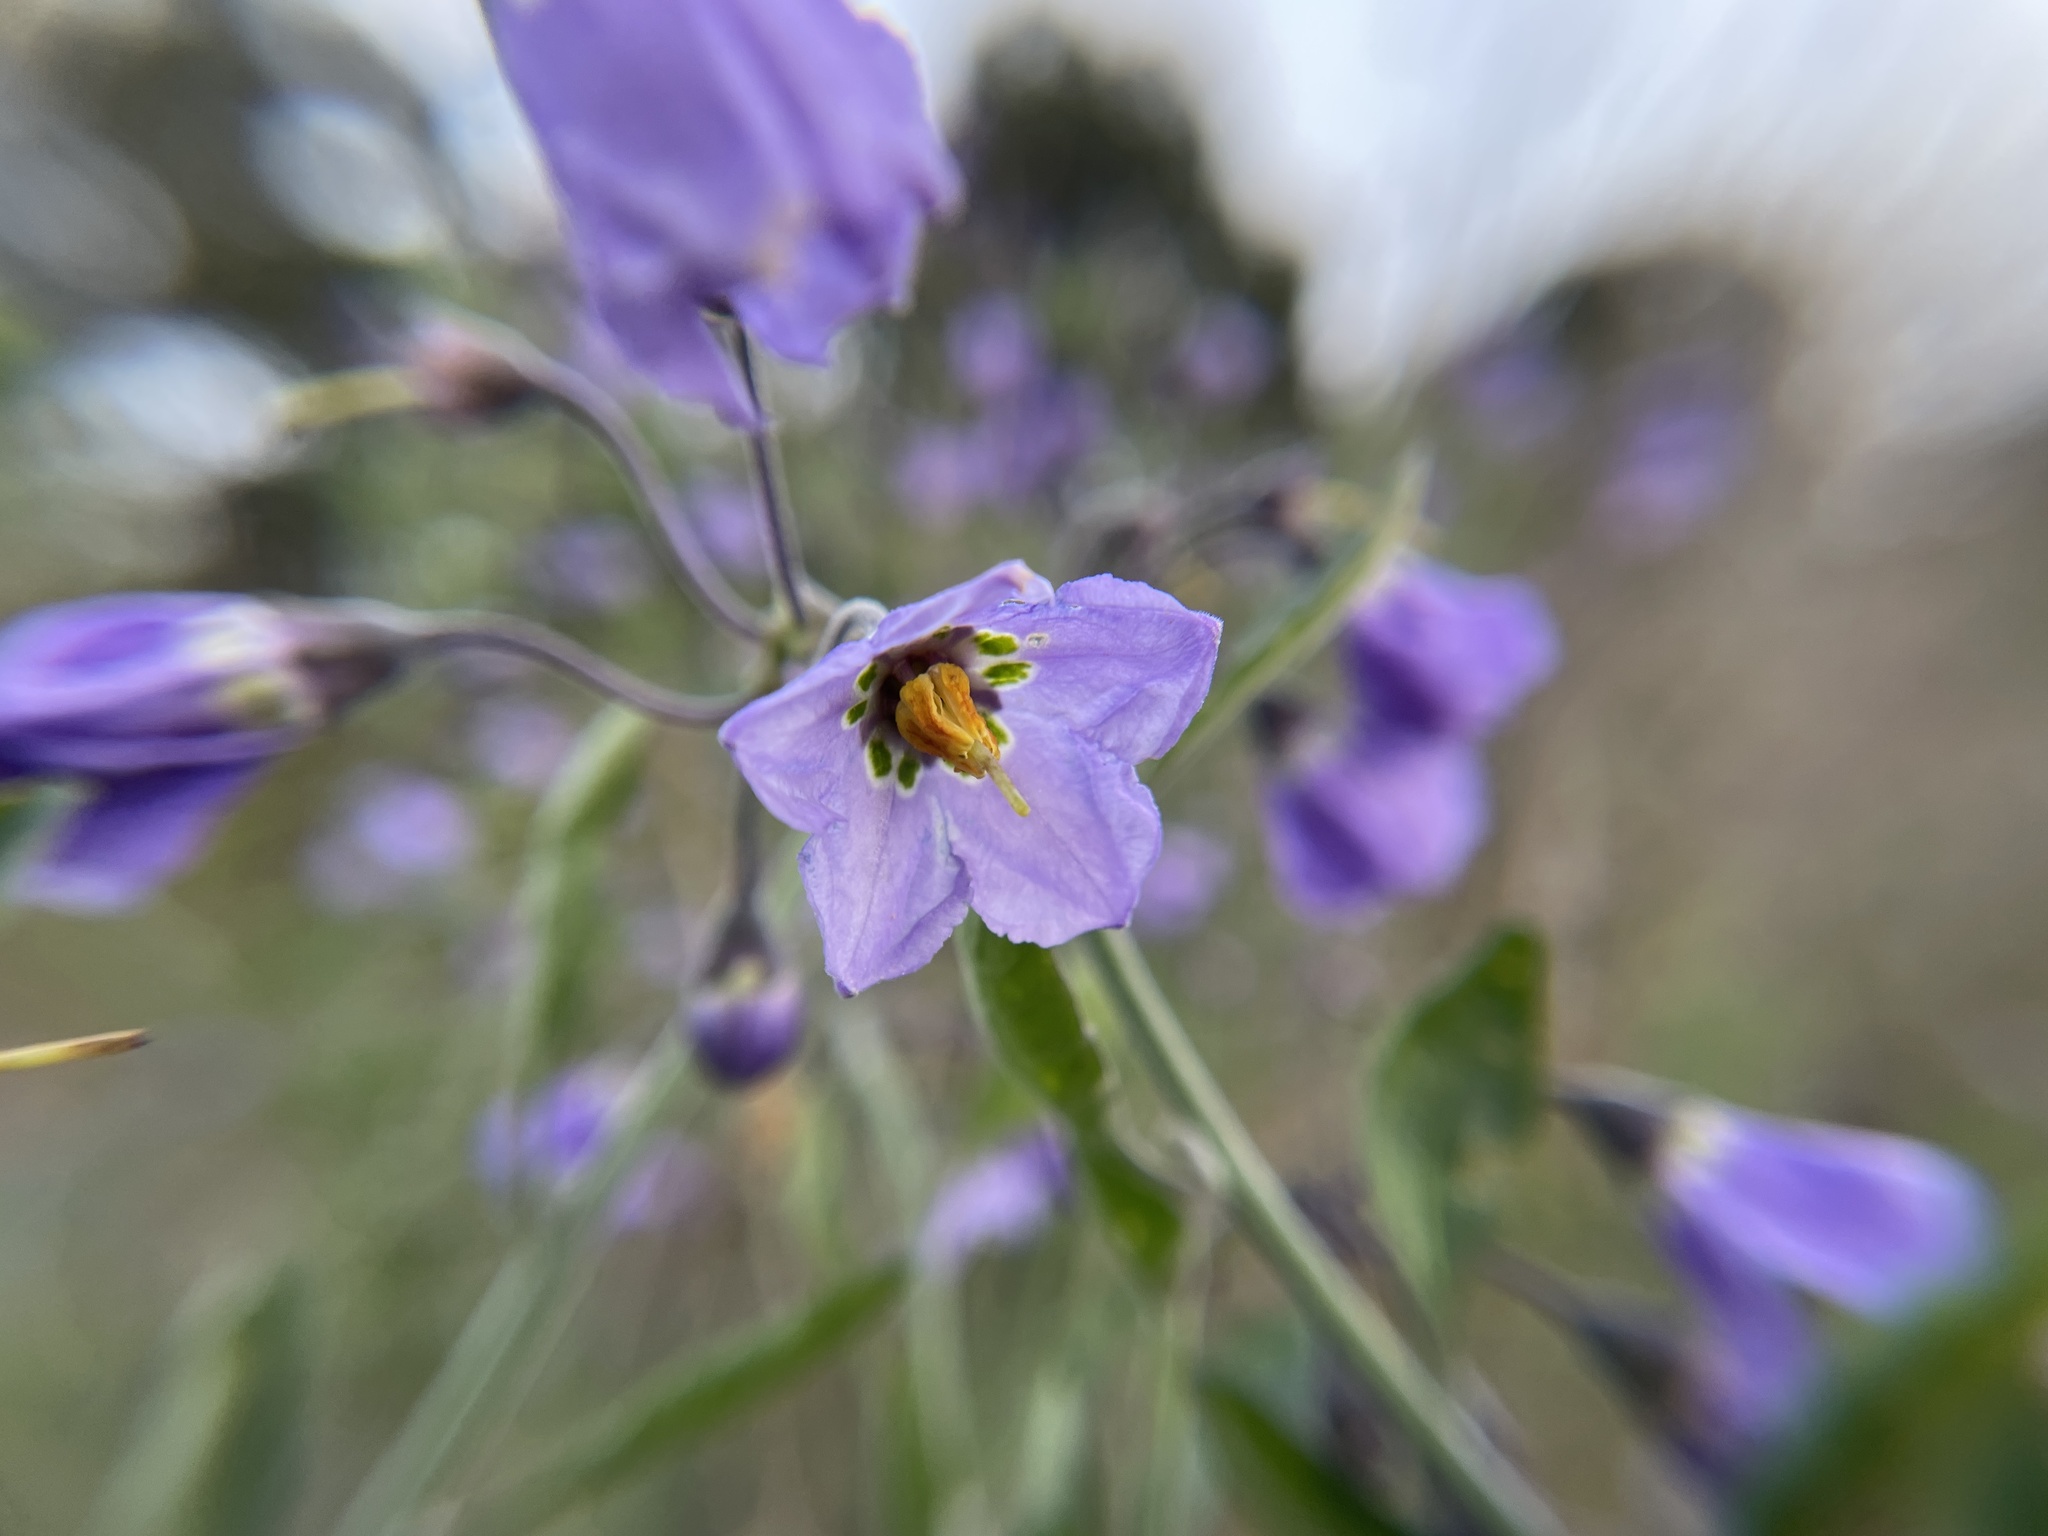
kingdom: Plantae
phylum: Tracheophyta
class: Magnoliopsida
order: Solanales
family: Solanaceae
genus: Solanum
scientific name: Solanum umbelliferum
